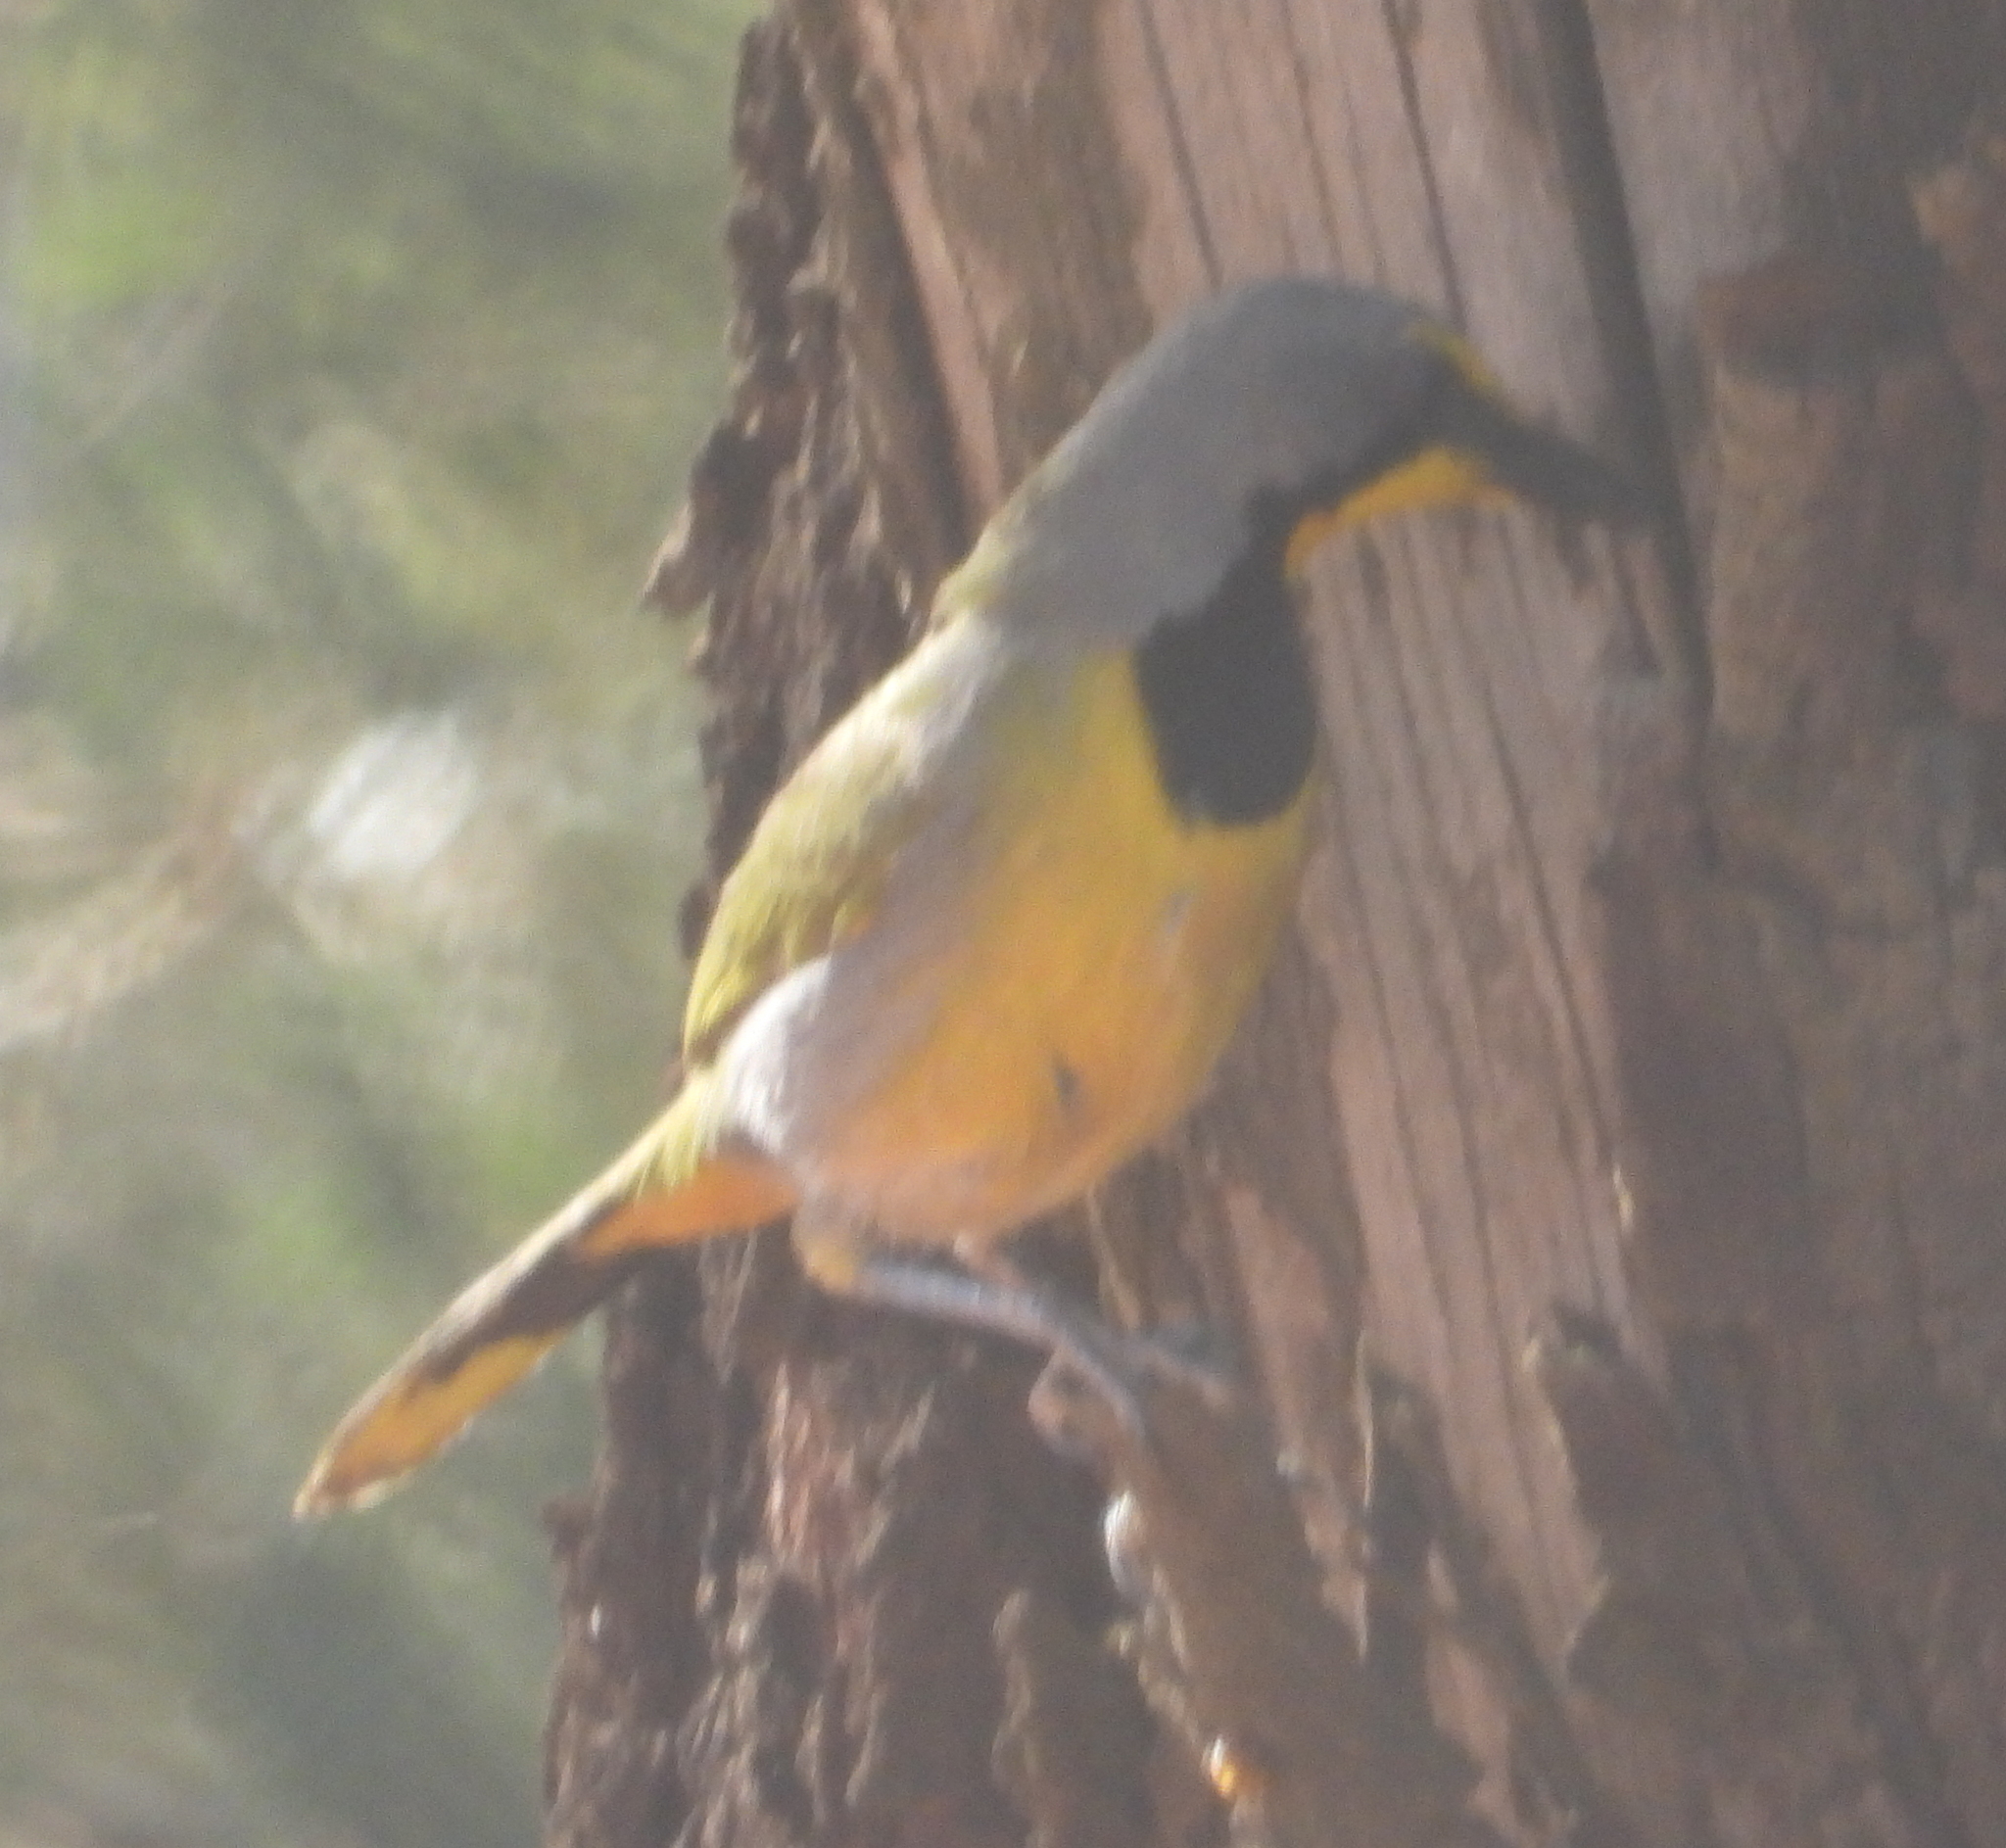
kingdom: Animalia
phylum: Chordata
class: Aves
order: Passeriformes
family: Malaconotidae
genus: Telophorus
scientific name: Telophorus zeylonus
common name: Bokmakierie
